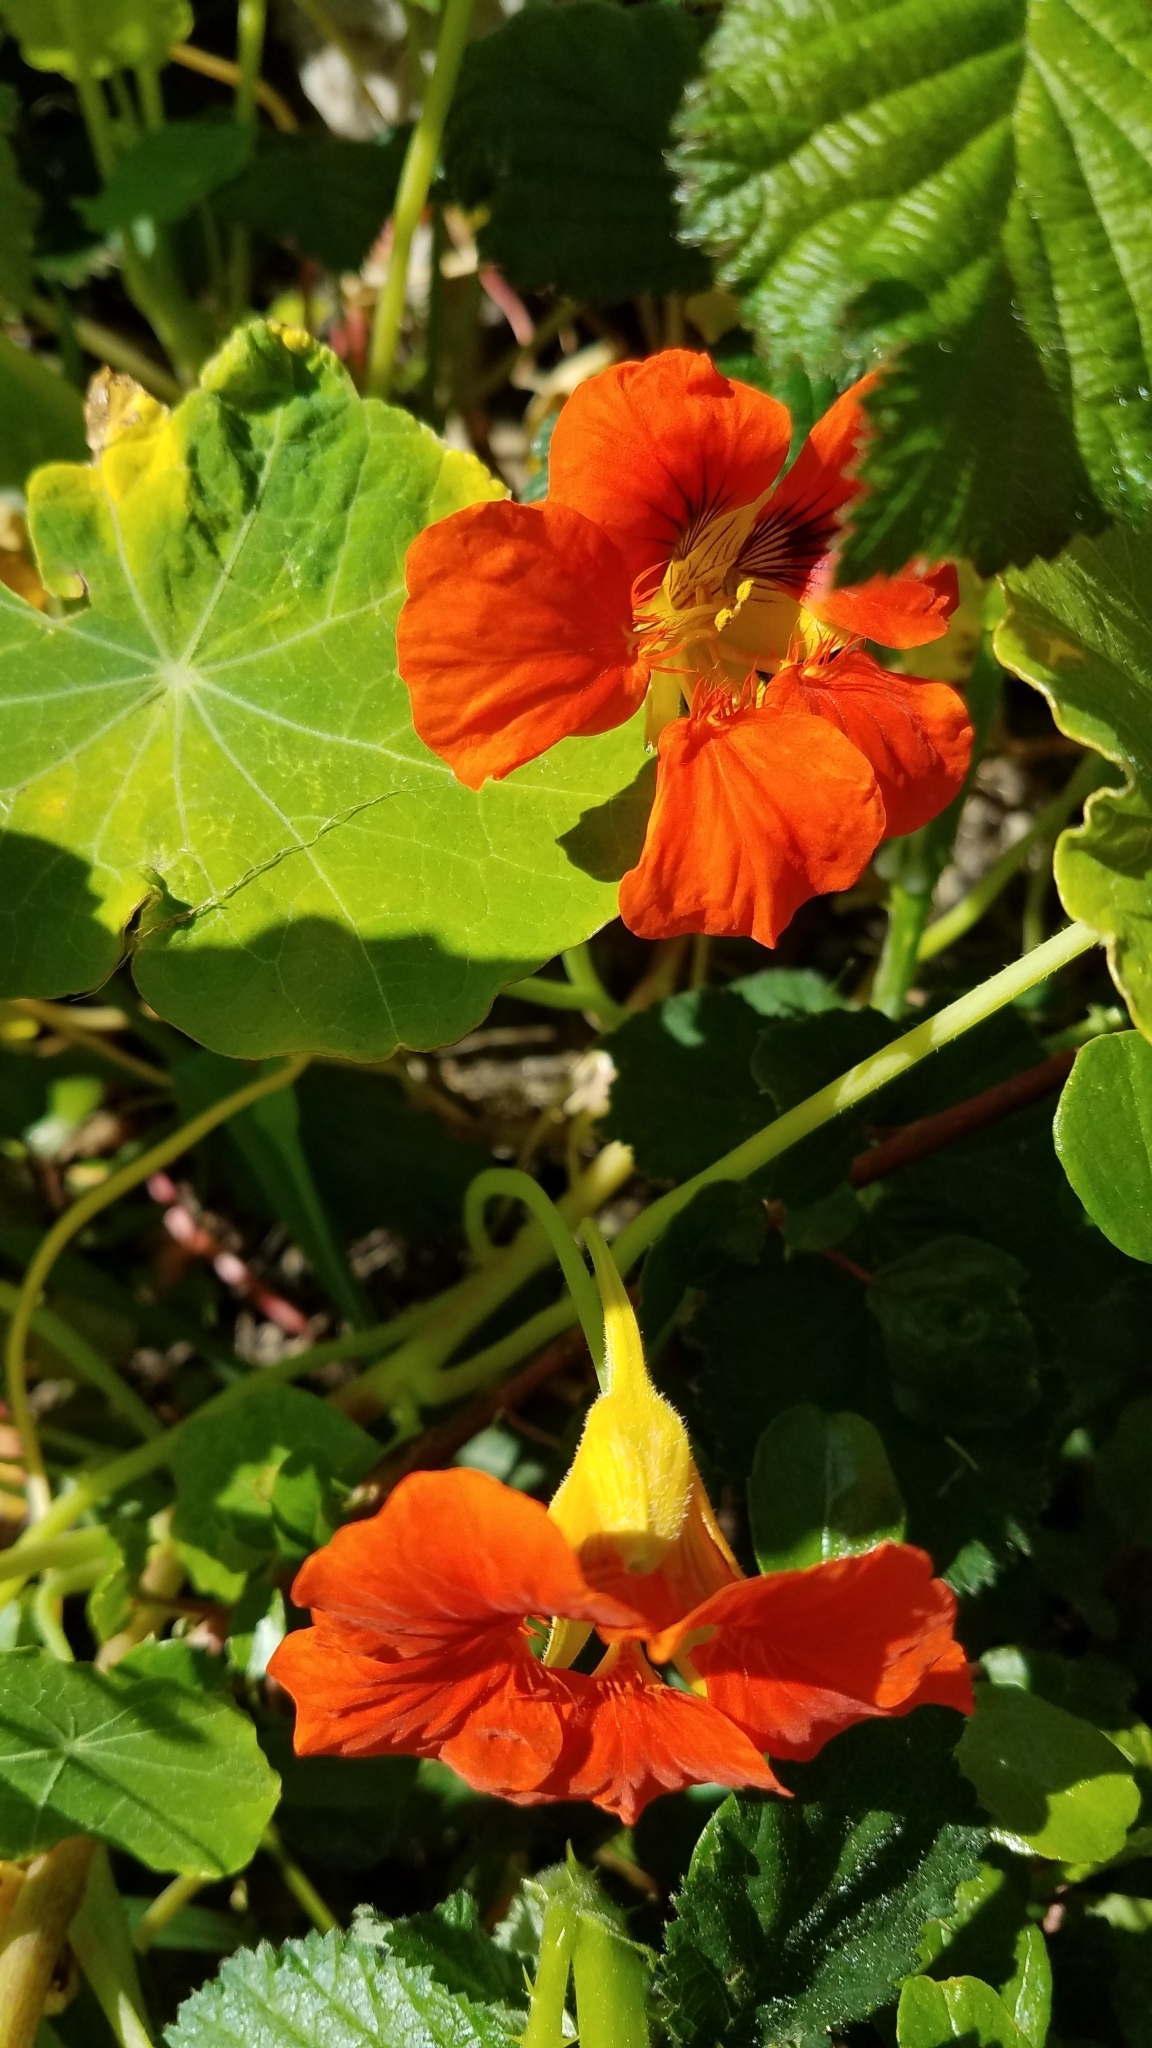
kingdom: Plantae
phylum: Tracheophyta
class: Magnoliopsida
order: Brassicales
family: Tropaeolaceae
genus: Tropaeolum
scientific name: Tropaeolum majus
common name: Nasturtium
